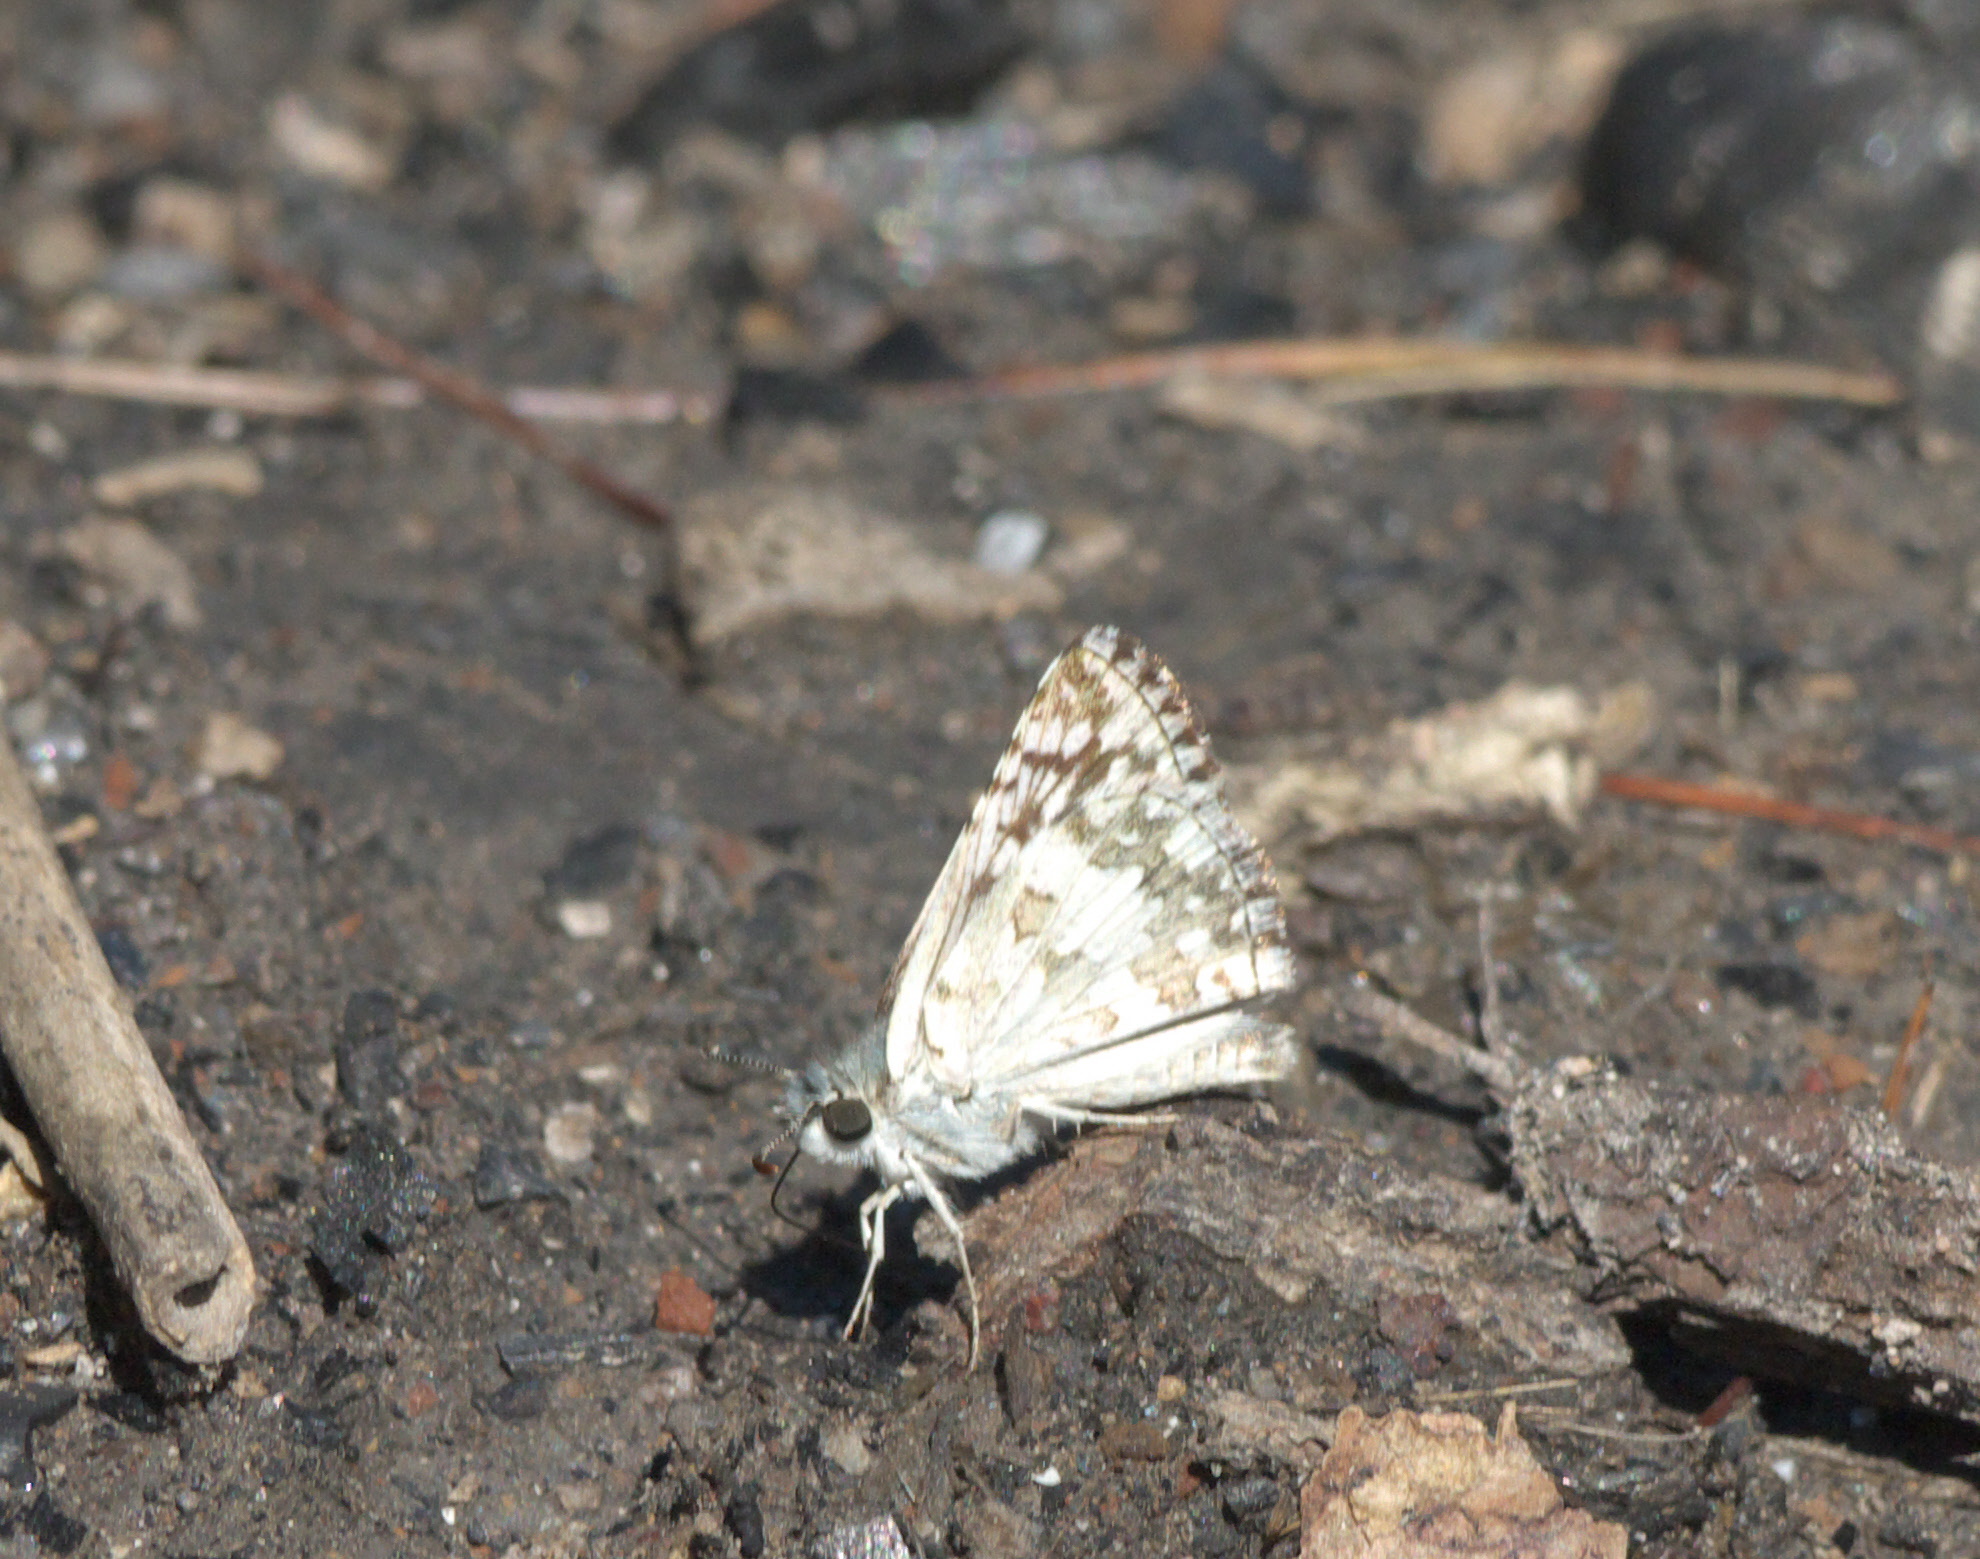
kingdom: Animalia
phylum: Arthropoda
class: Insecta
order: Lepidoptera
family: Hesperiidae
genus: Burnsius
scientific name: Burnsius communis
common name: Common checkered-skipper
